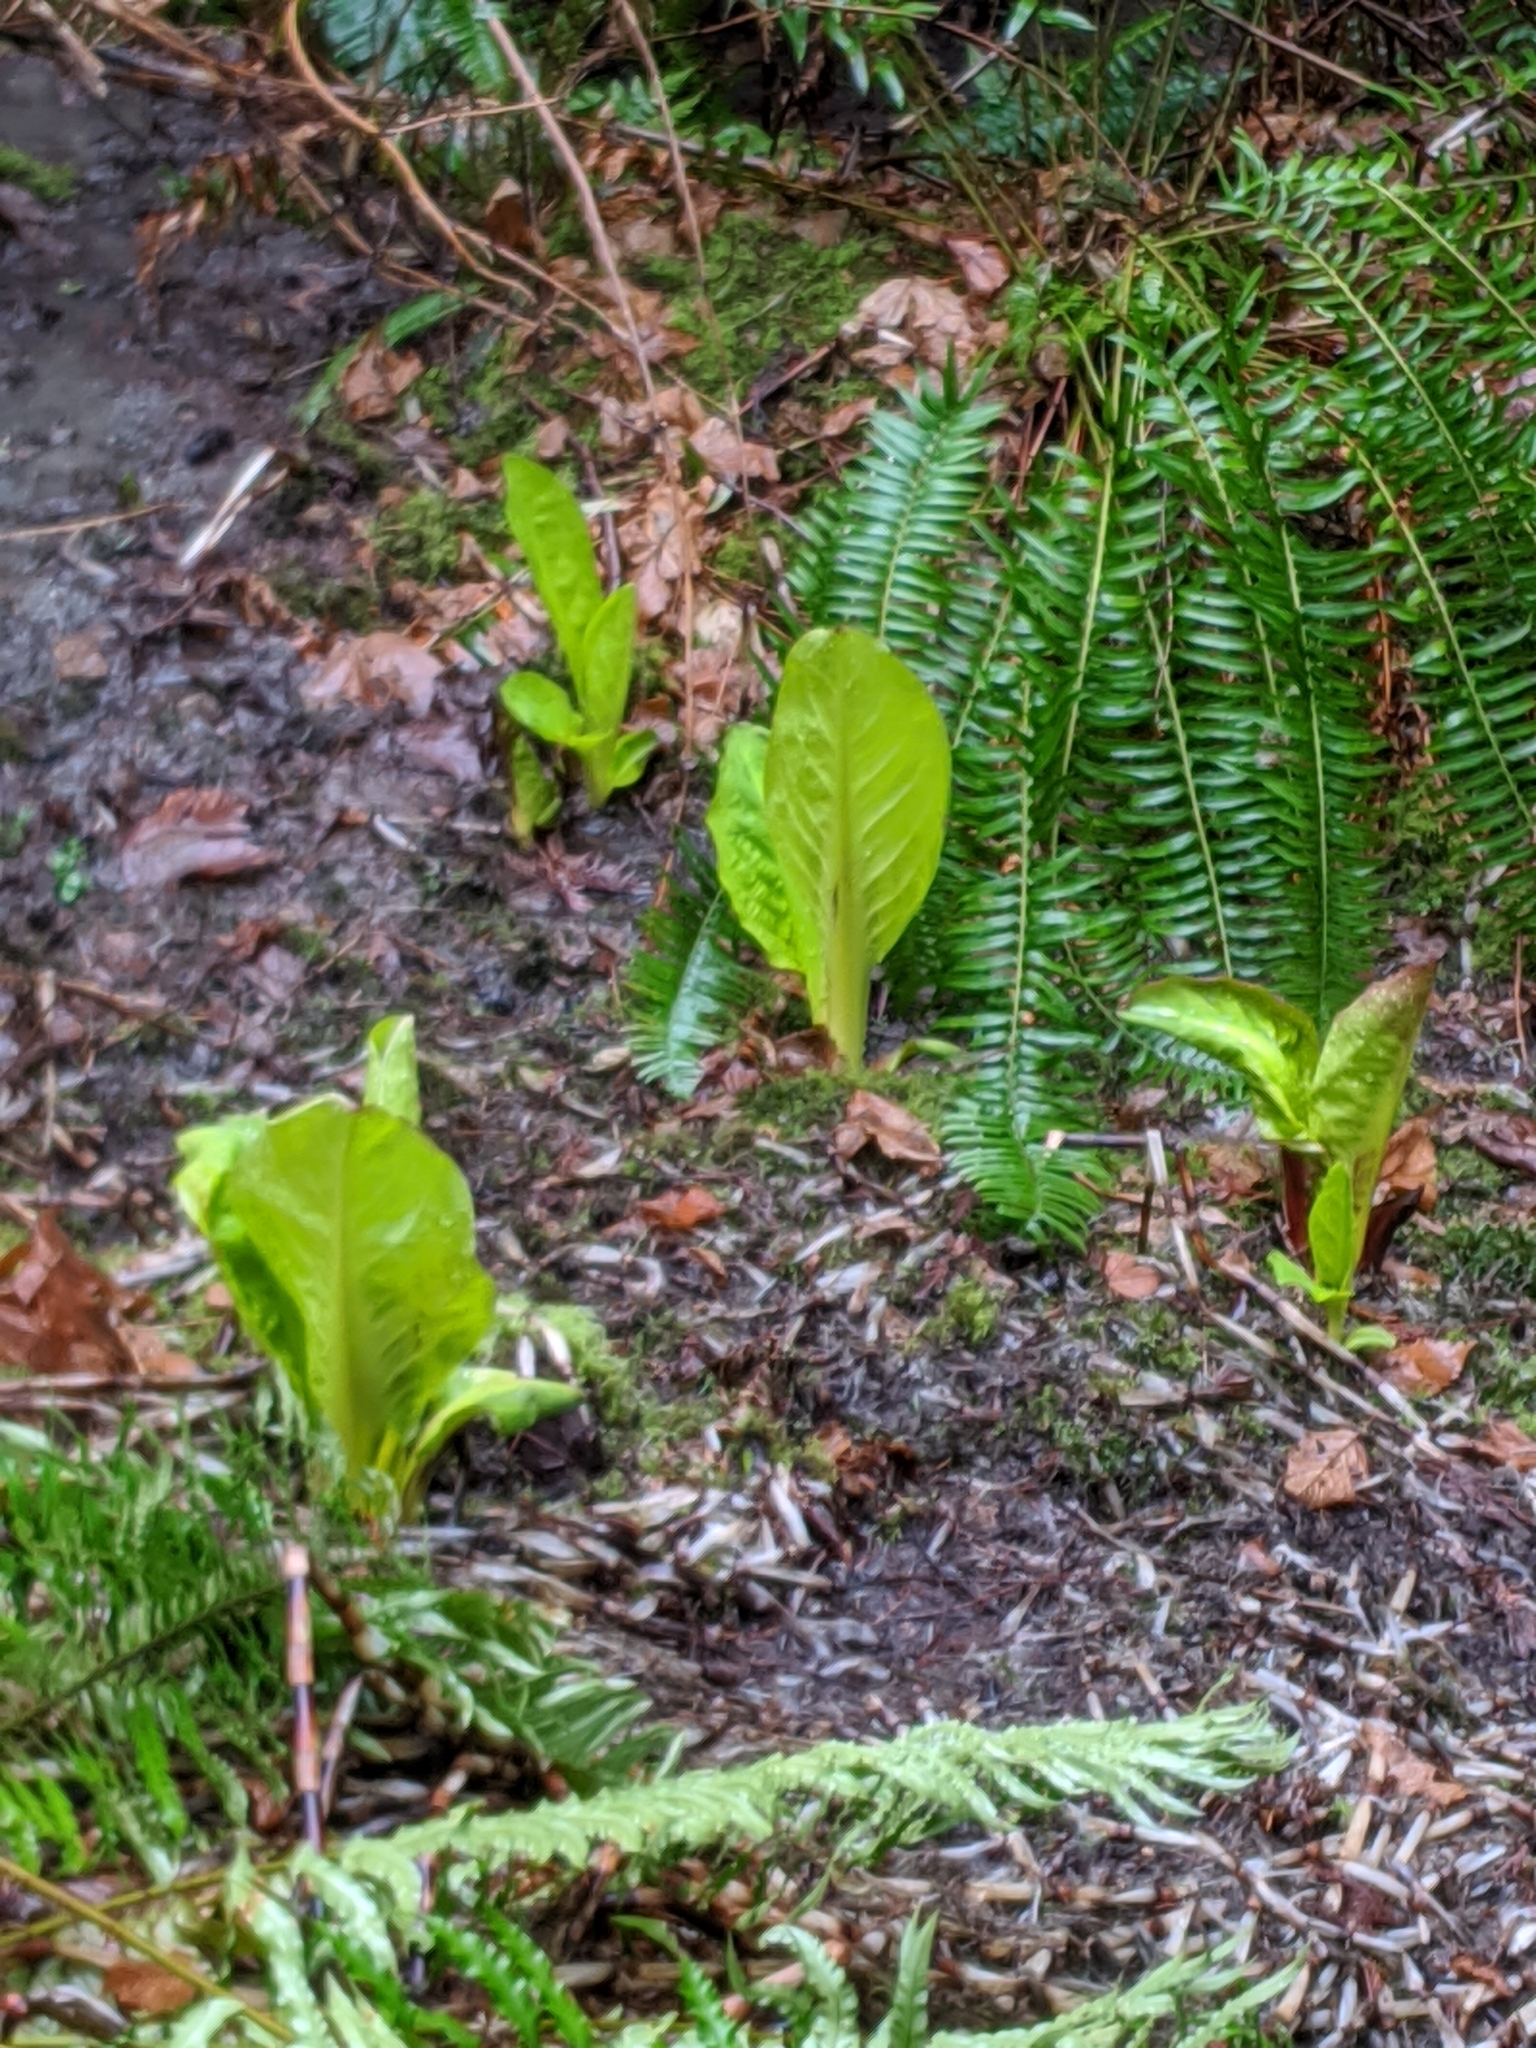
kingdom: Plantae
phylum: Tracheophyta
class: Liliopsida
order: Alismatales
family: Araceae
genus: Lysichiton
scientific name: Lysichiton americanus
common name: American skunk cabbage
